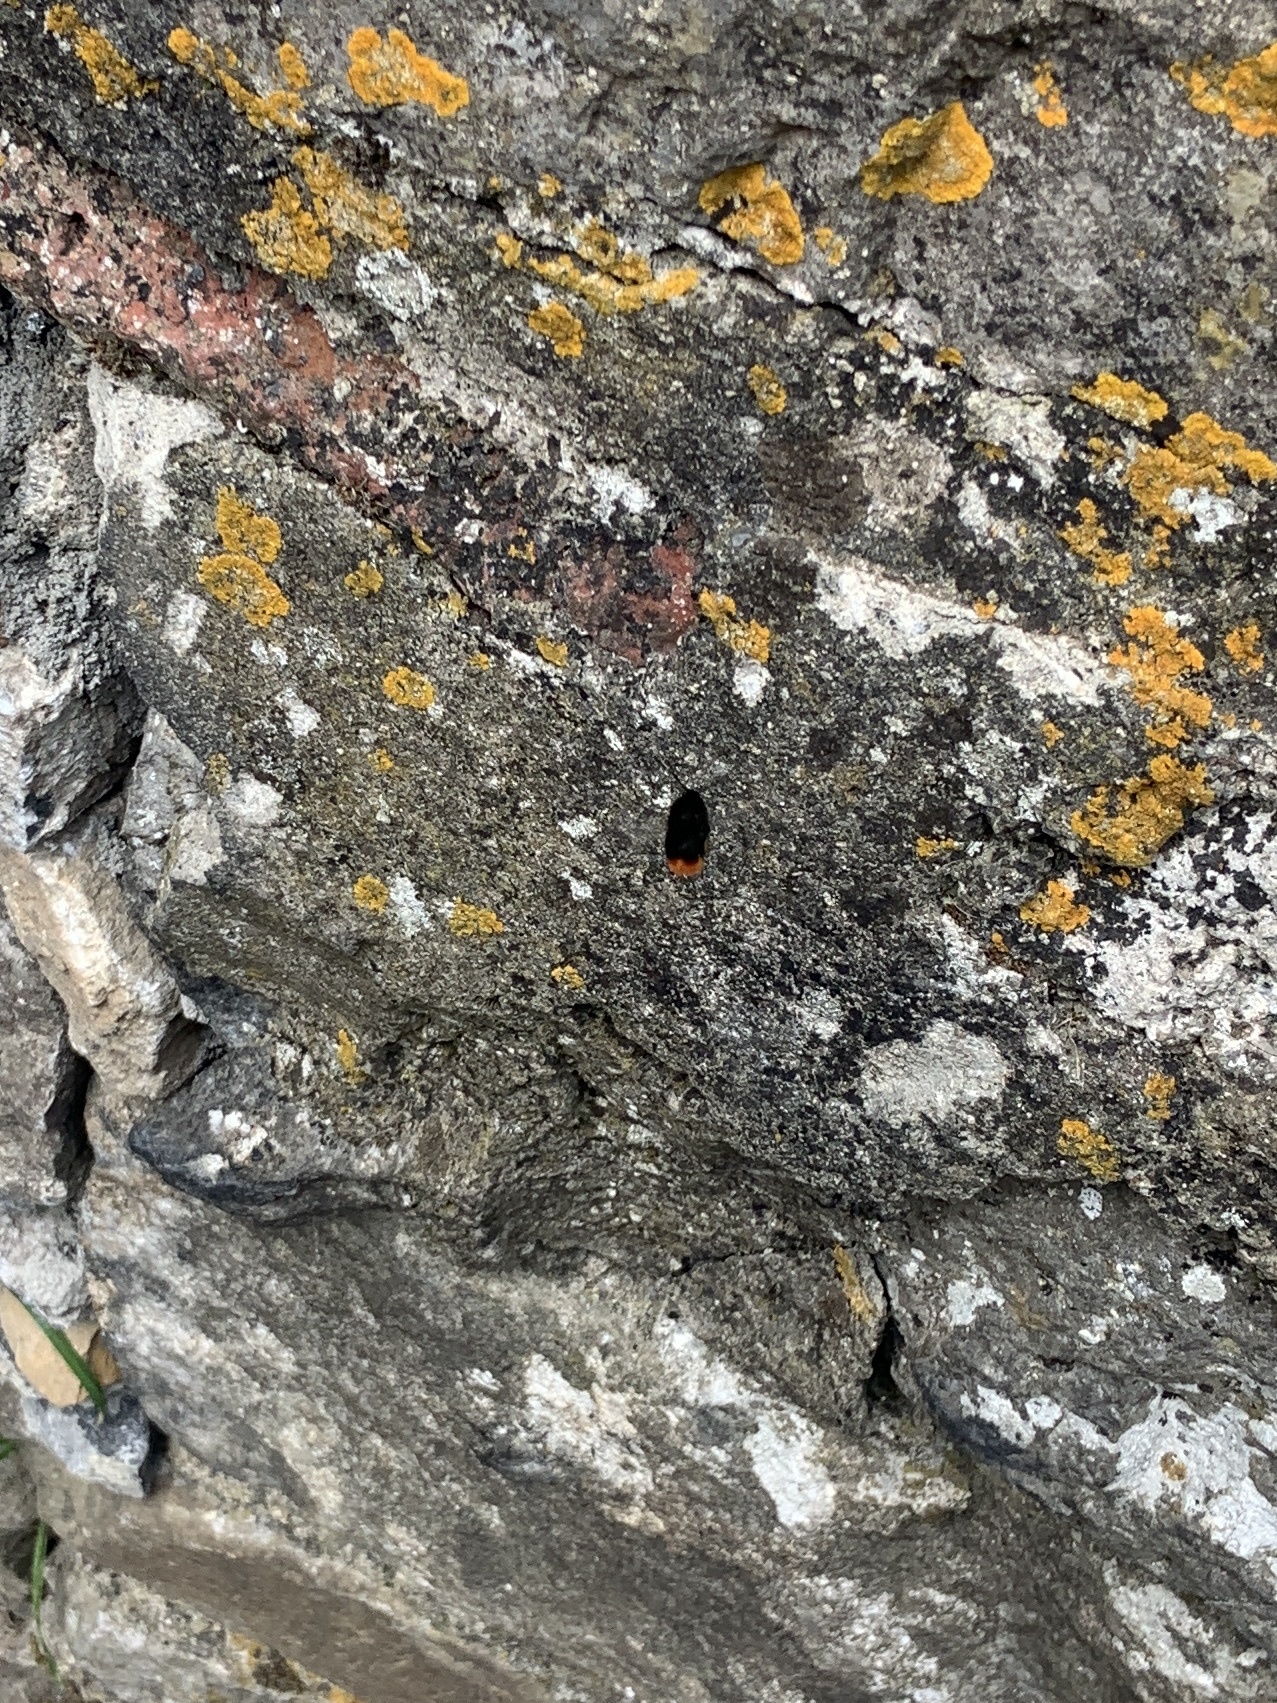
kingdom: Animalia
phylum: Arthropoda
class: Insecta
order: Hymenoptera
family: Apidae
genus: Bombus
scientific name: Bombus lapidarius
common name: Large red-tailed humble-bee
